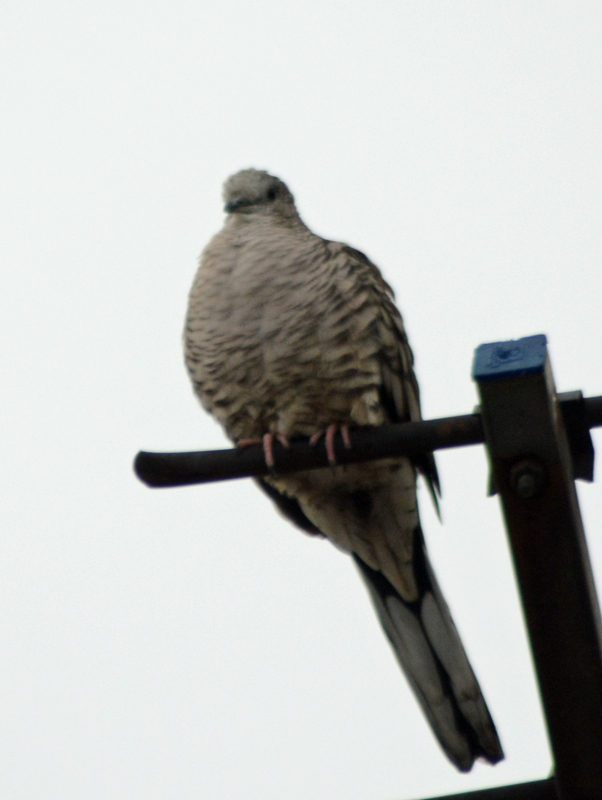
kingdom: Animalia
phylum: Chordata
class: Aves
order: Columbiformes
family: Columbidae
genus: Columbina
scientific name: Columbina inca
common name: Inca dove
